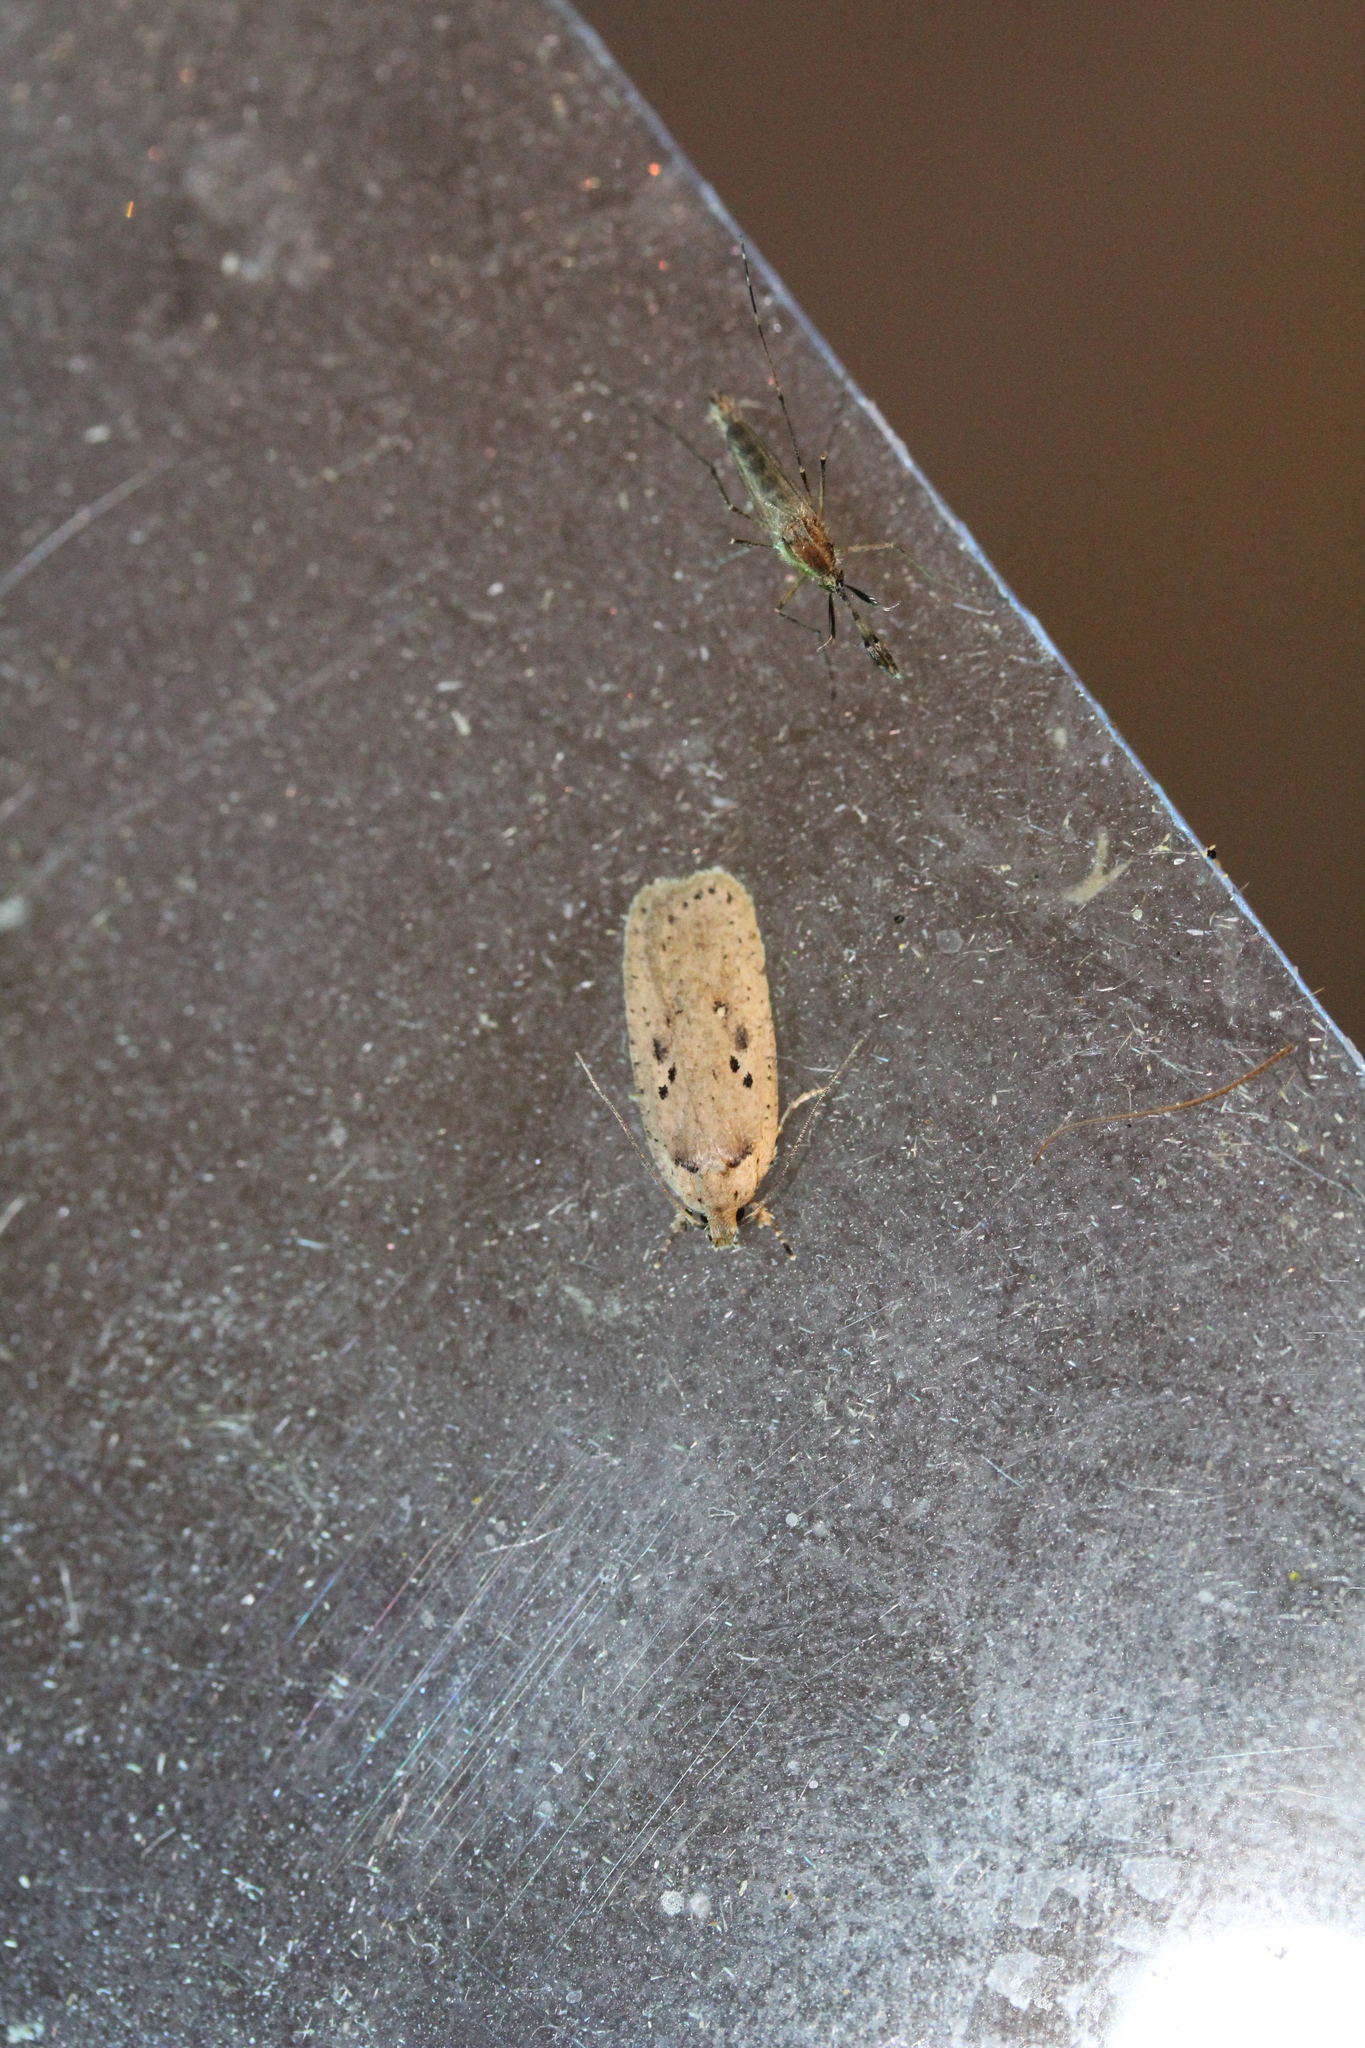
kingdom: Animalia
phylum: Arthropoda
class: Insecta
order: Lepidoptera
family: Depressariidae
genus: Agonopterix
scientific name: Agonopterix yeatiana
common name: Coastal flat-body
